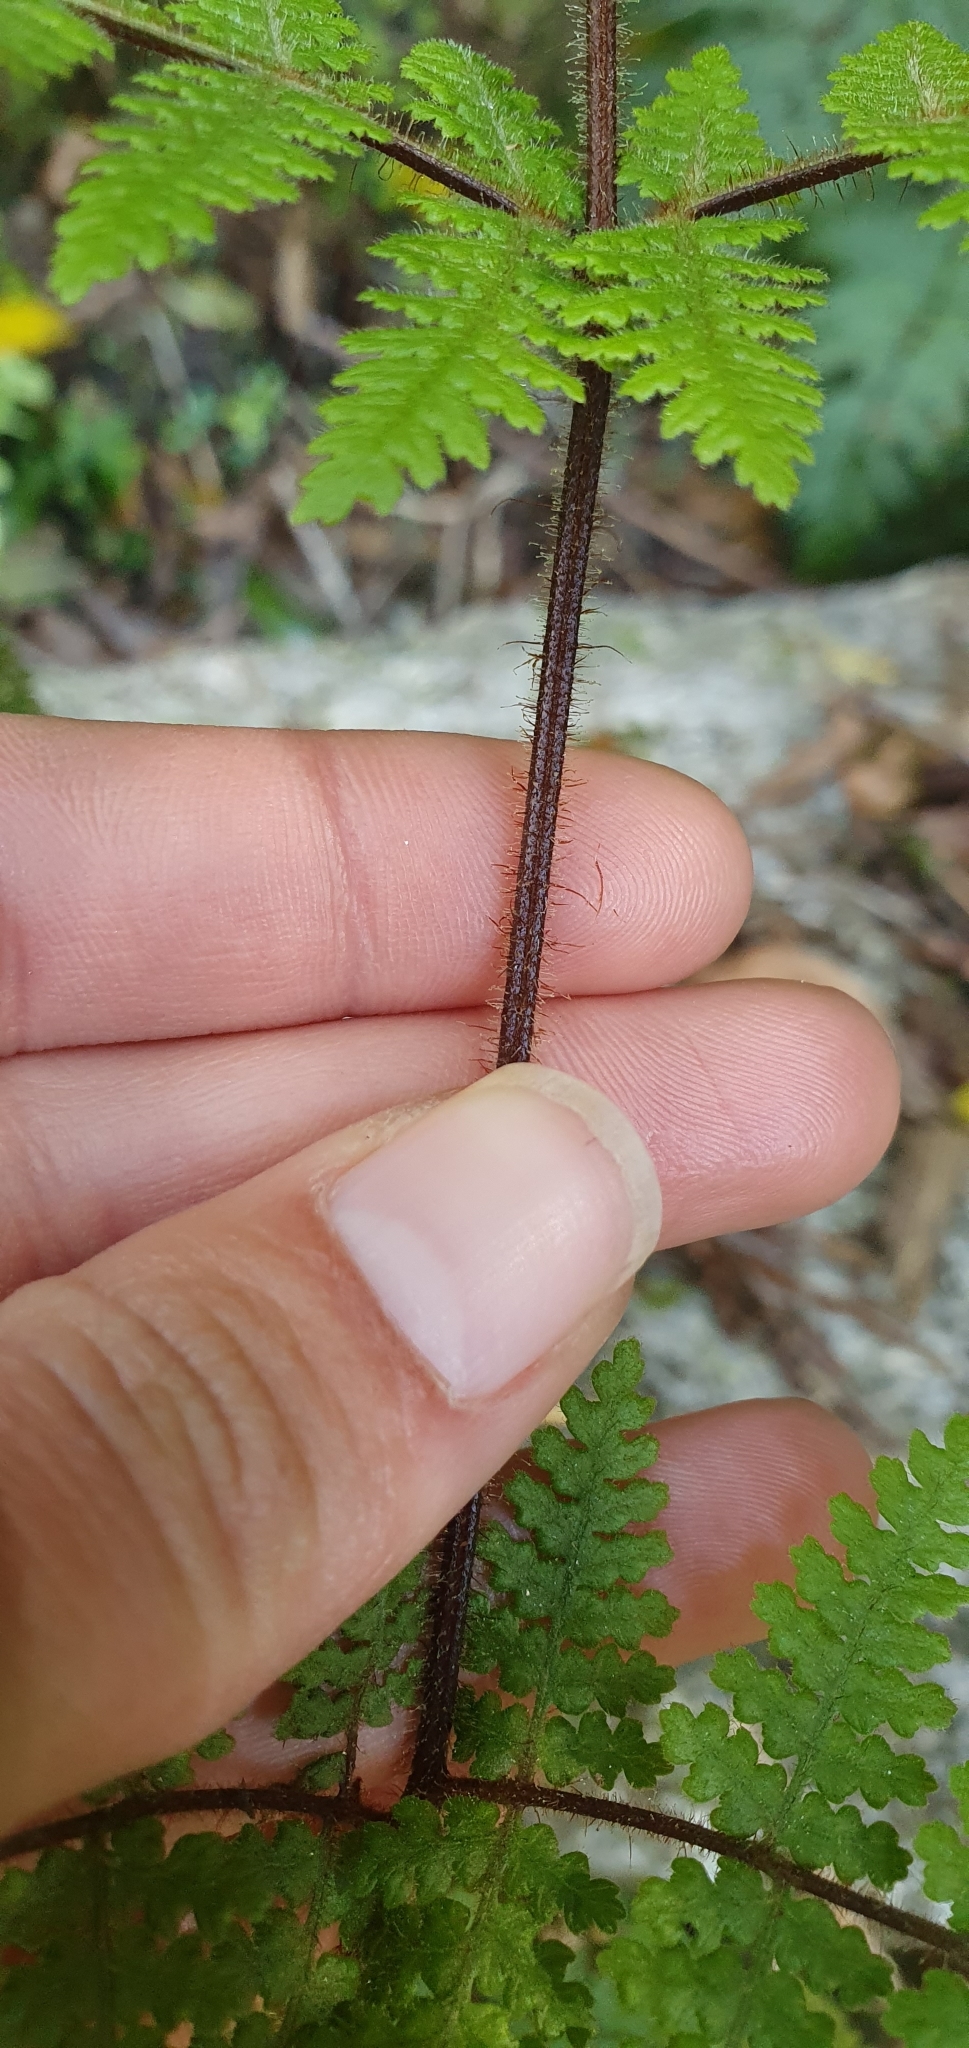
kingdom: Plantae
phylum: Tracheophyta
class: Polypodiopsida
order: Polypodiales
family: Dennstaedtiaceae
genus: Hypolepis
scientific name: Hypolepis ambigua
